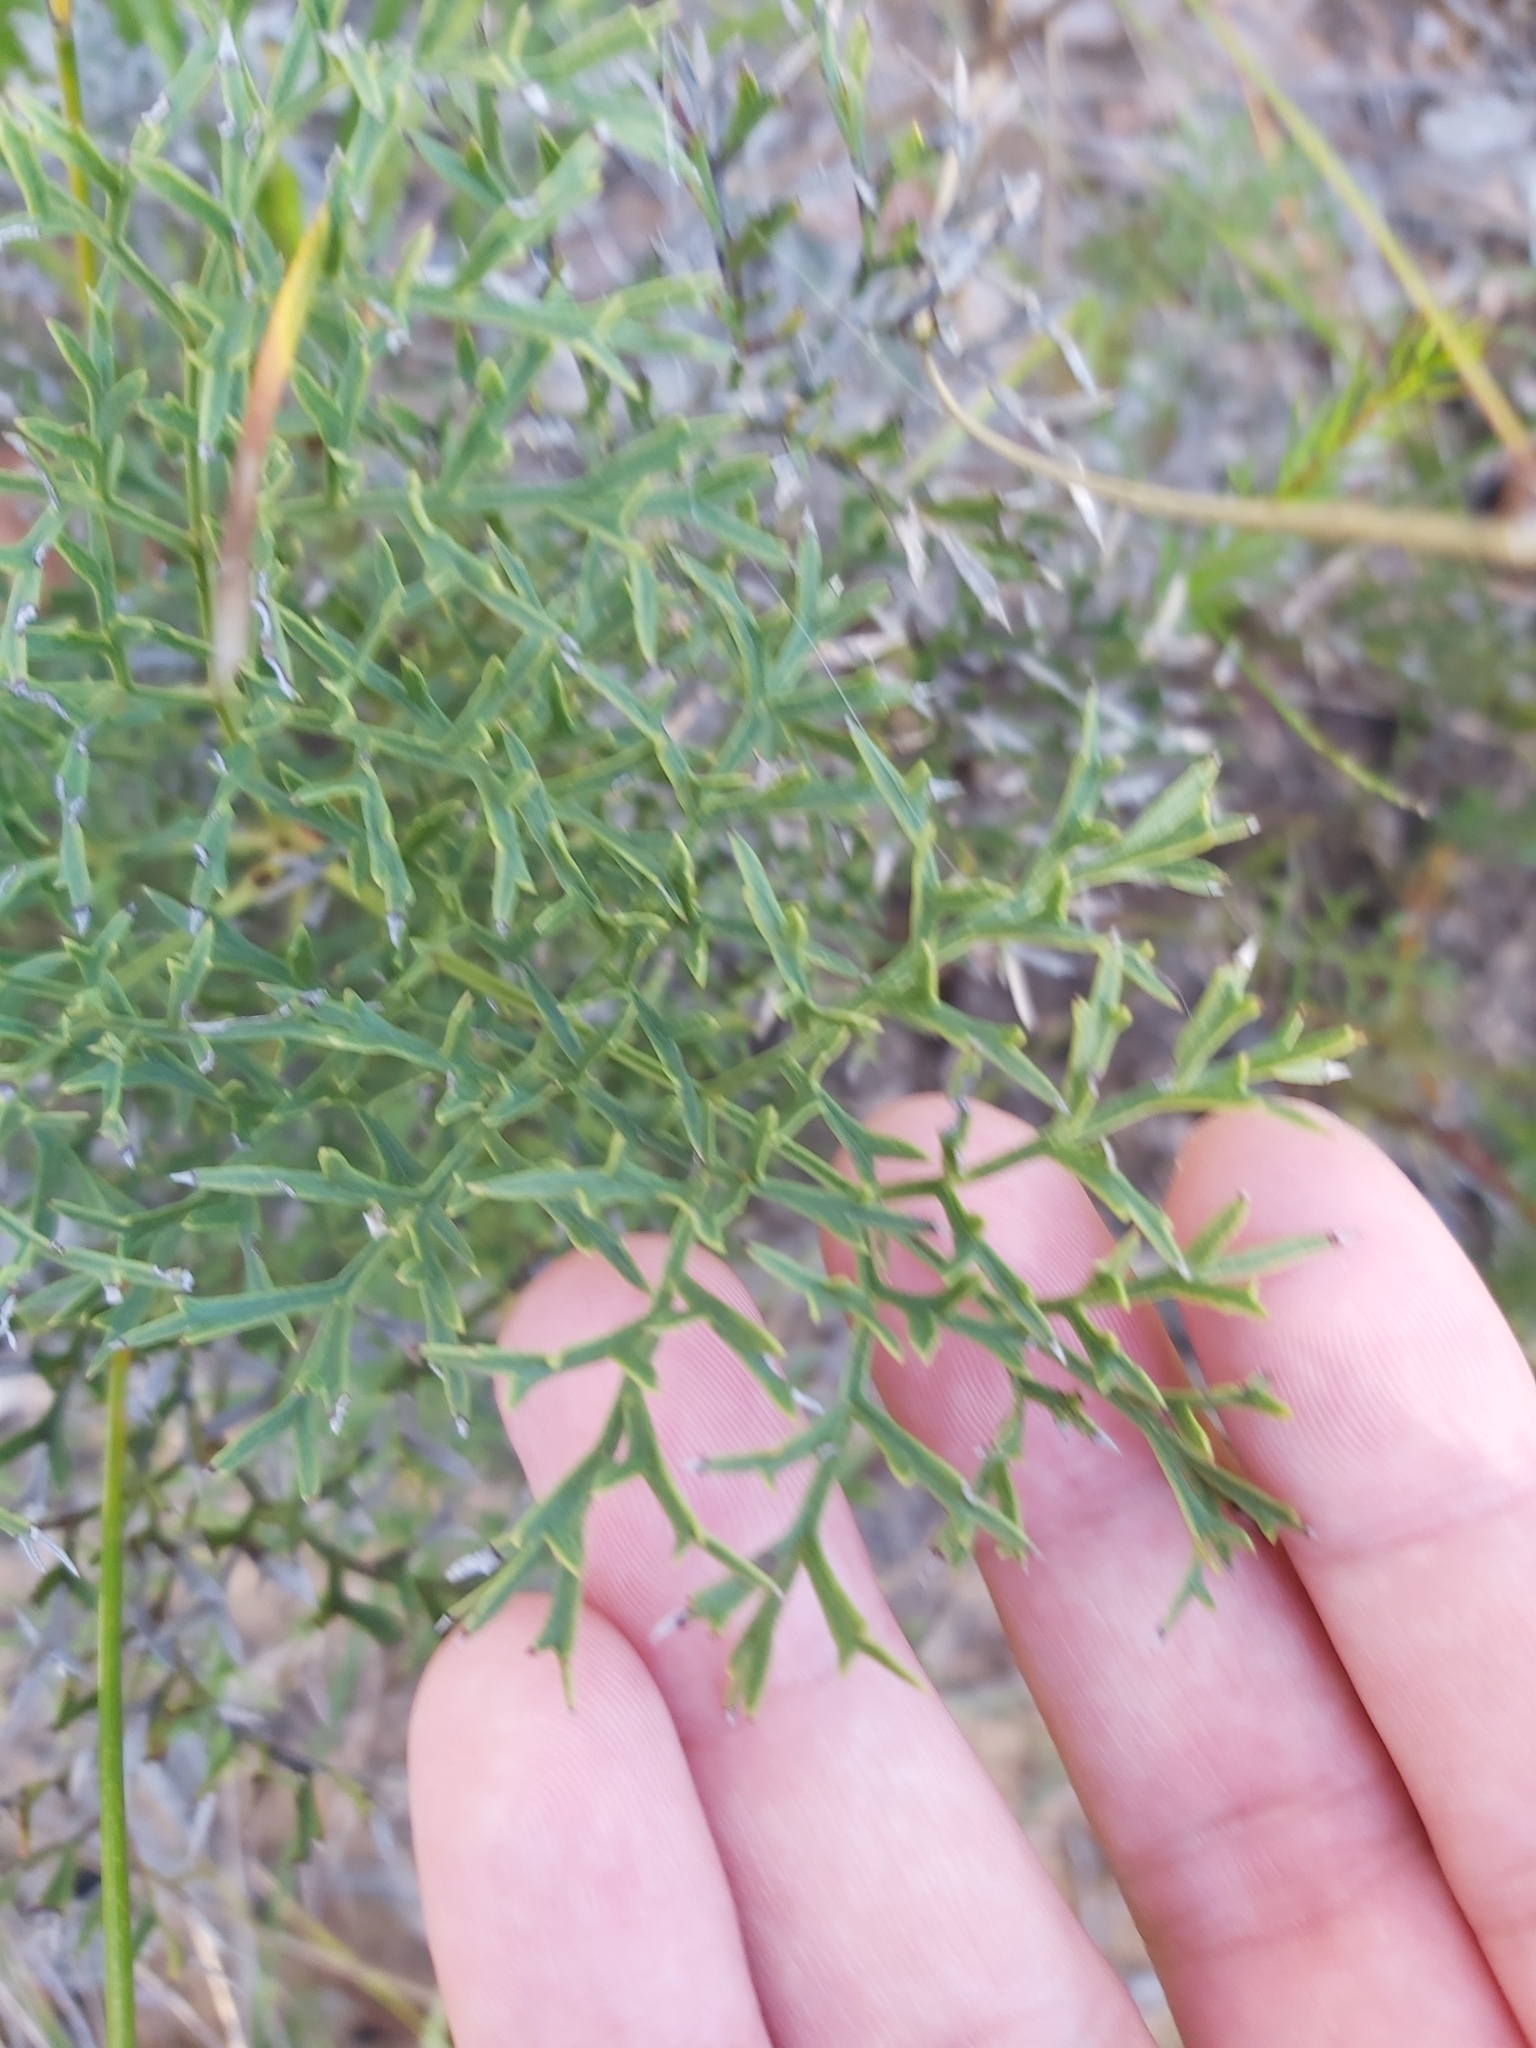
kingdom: Plantae
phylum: Tracheophyta
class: Magnoliopsida
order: Proteales
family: Proteaceae
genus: Lomatia
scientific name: Lomatia silaifolia
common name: Crinklebush
